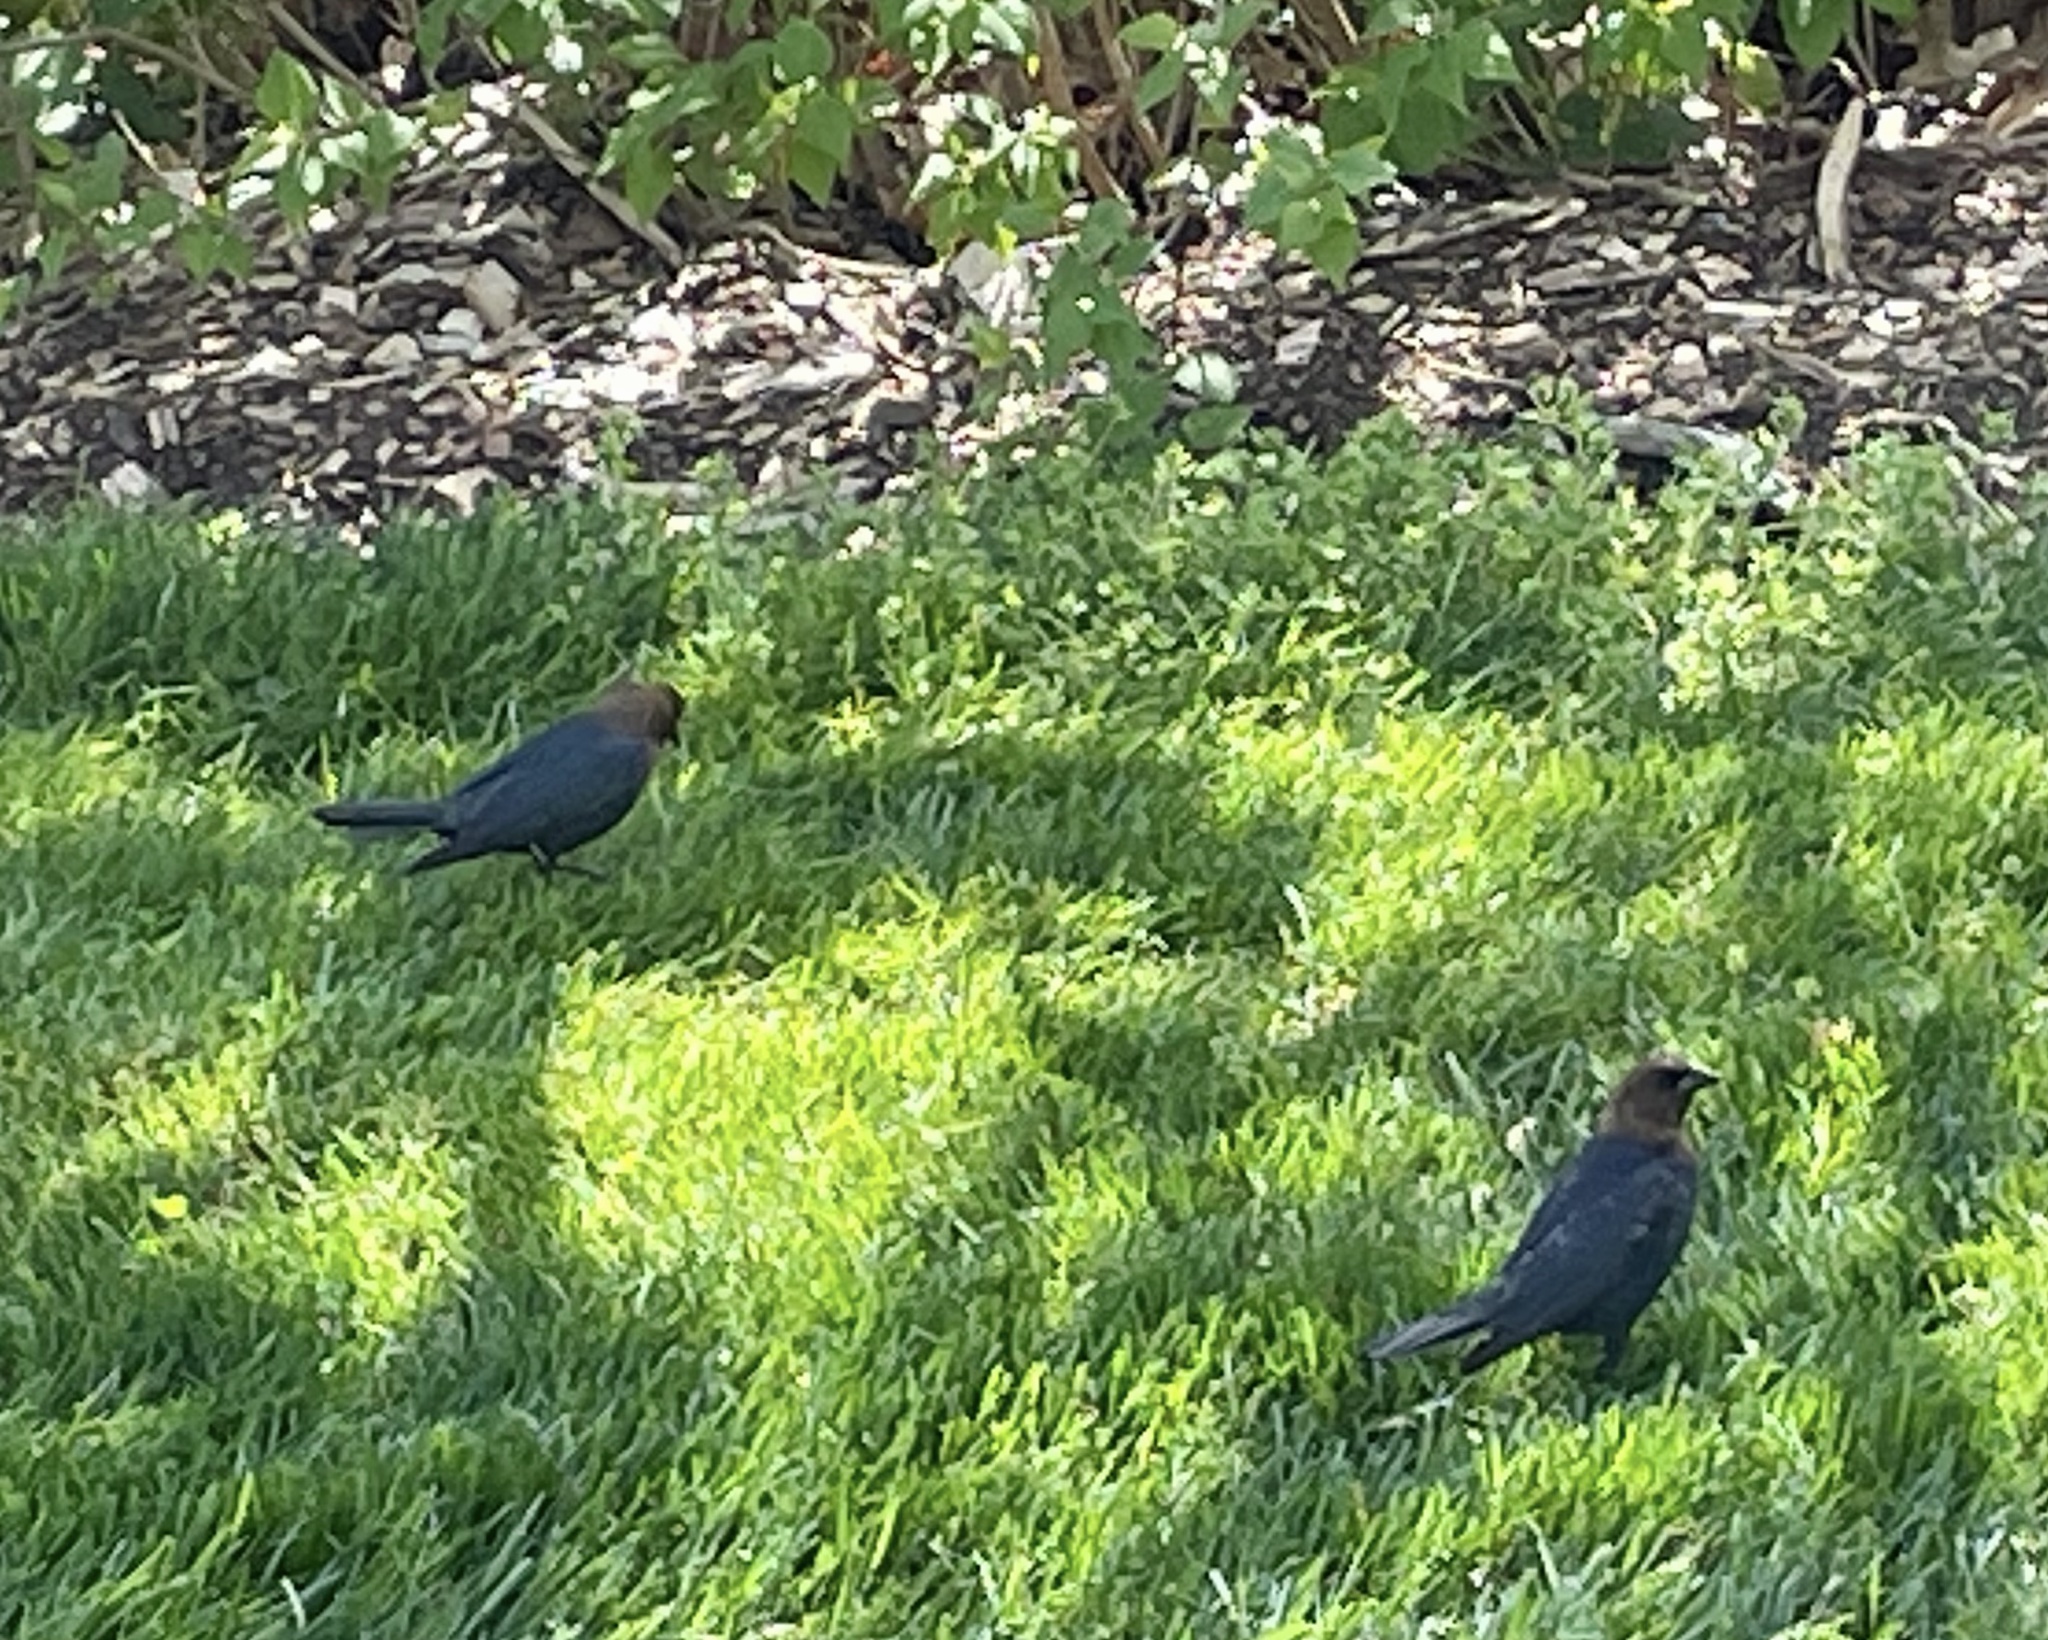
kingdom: Animalia
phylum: Chordata
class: Aves
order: Passeriformes
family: Icteridae
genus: Molothrus
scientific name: Molothrus ater
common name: Brown-headed cowbird
